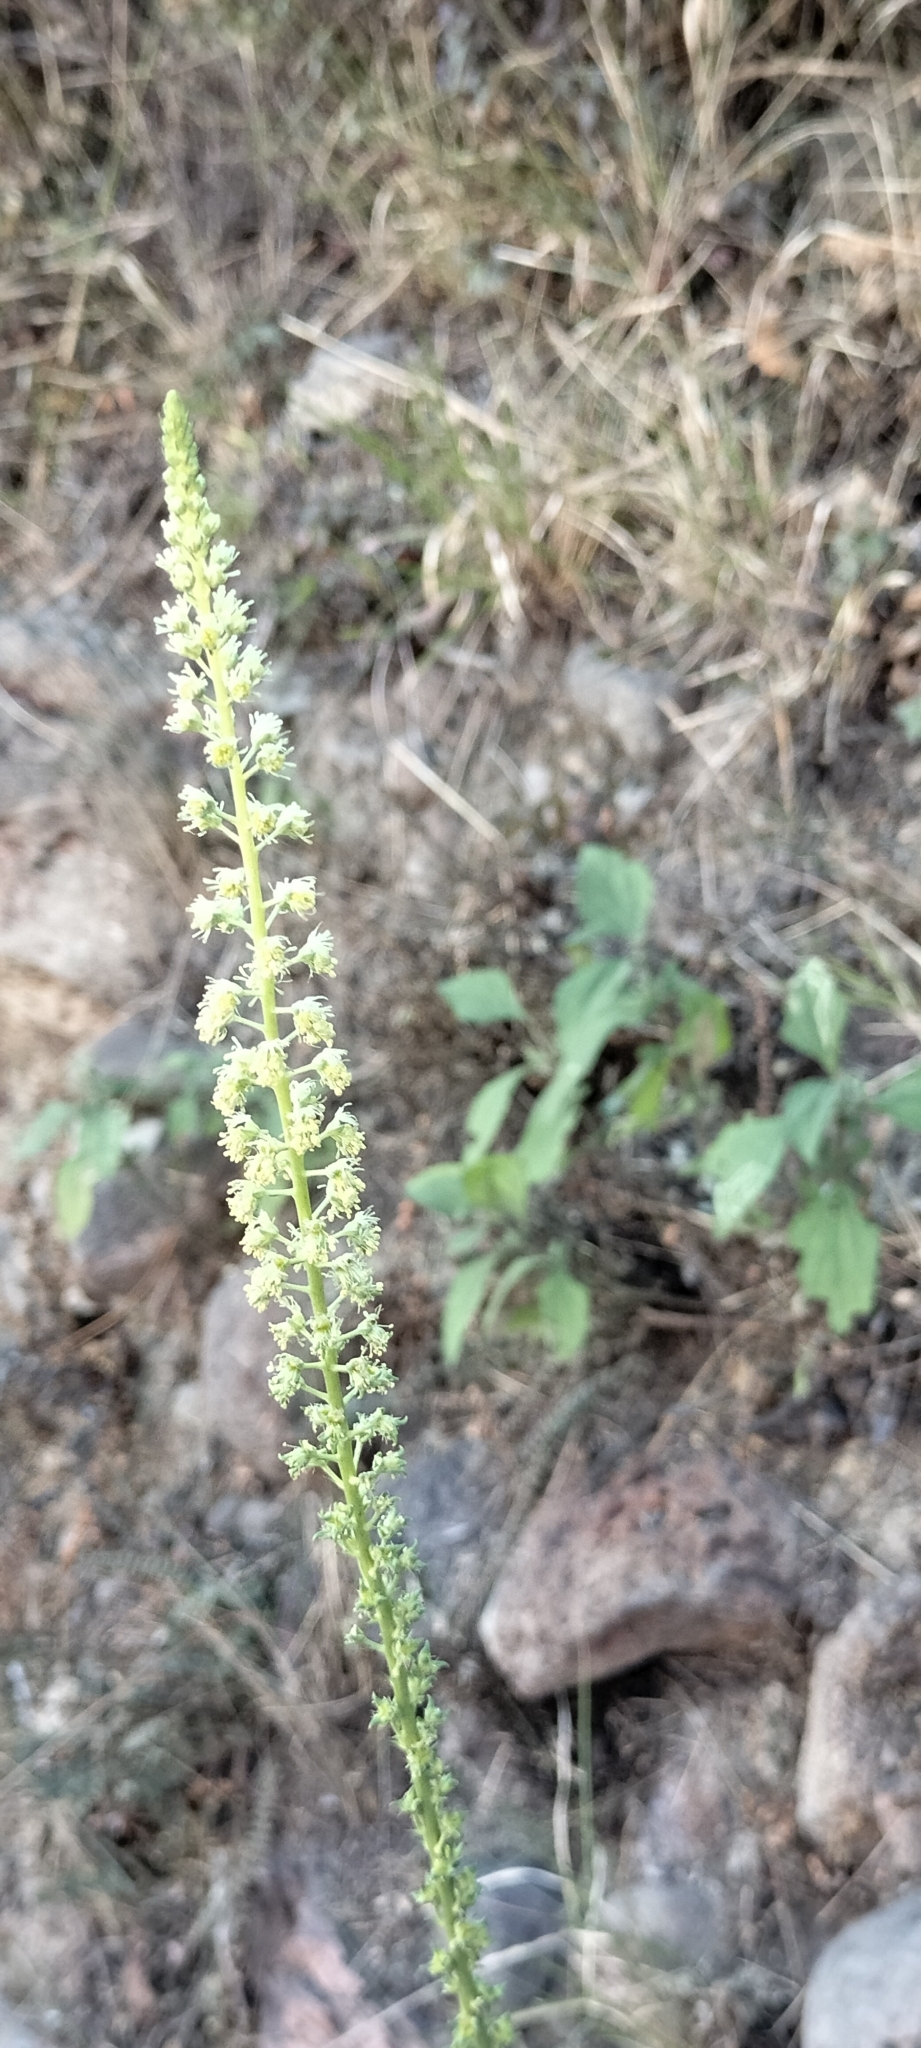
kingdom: Plantae
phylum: Tracheophyta
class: Magnoliopsida
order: Brassicales
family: Resedaceae
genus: Reseda
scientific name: Reseda luteola
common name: Weld
